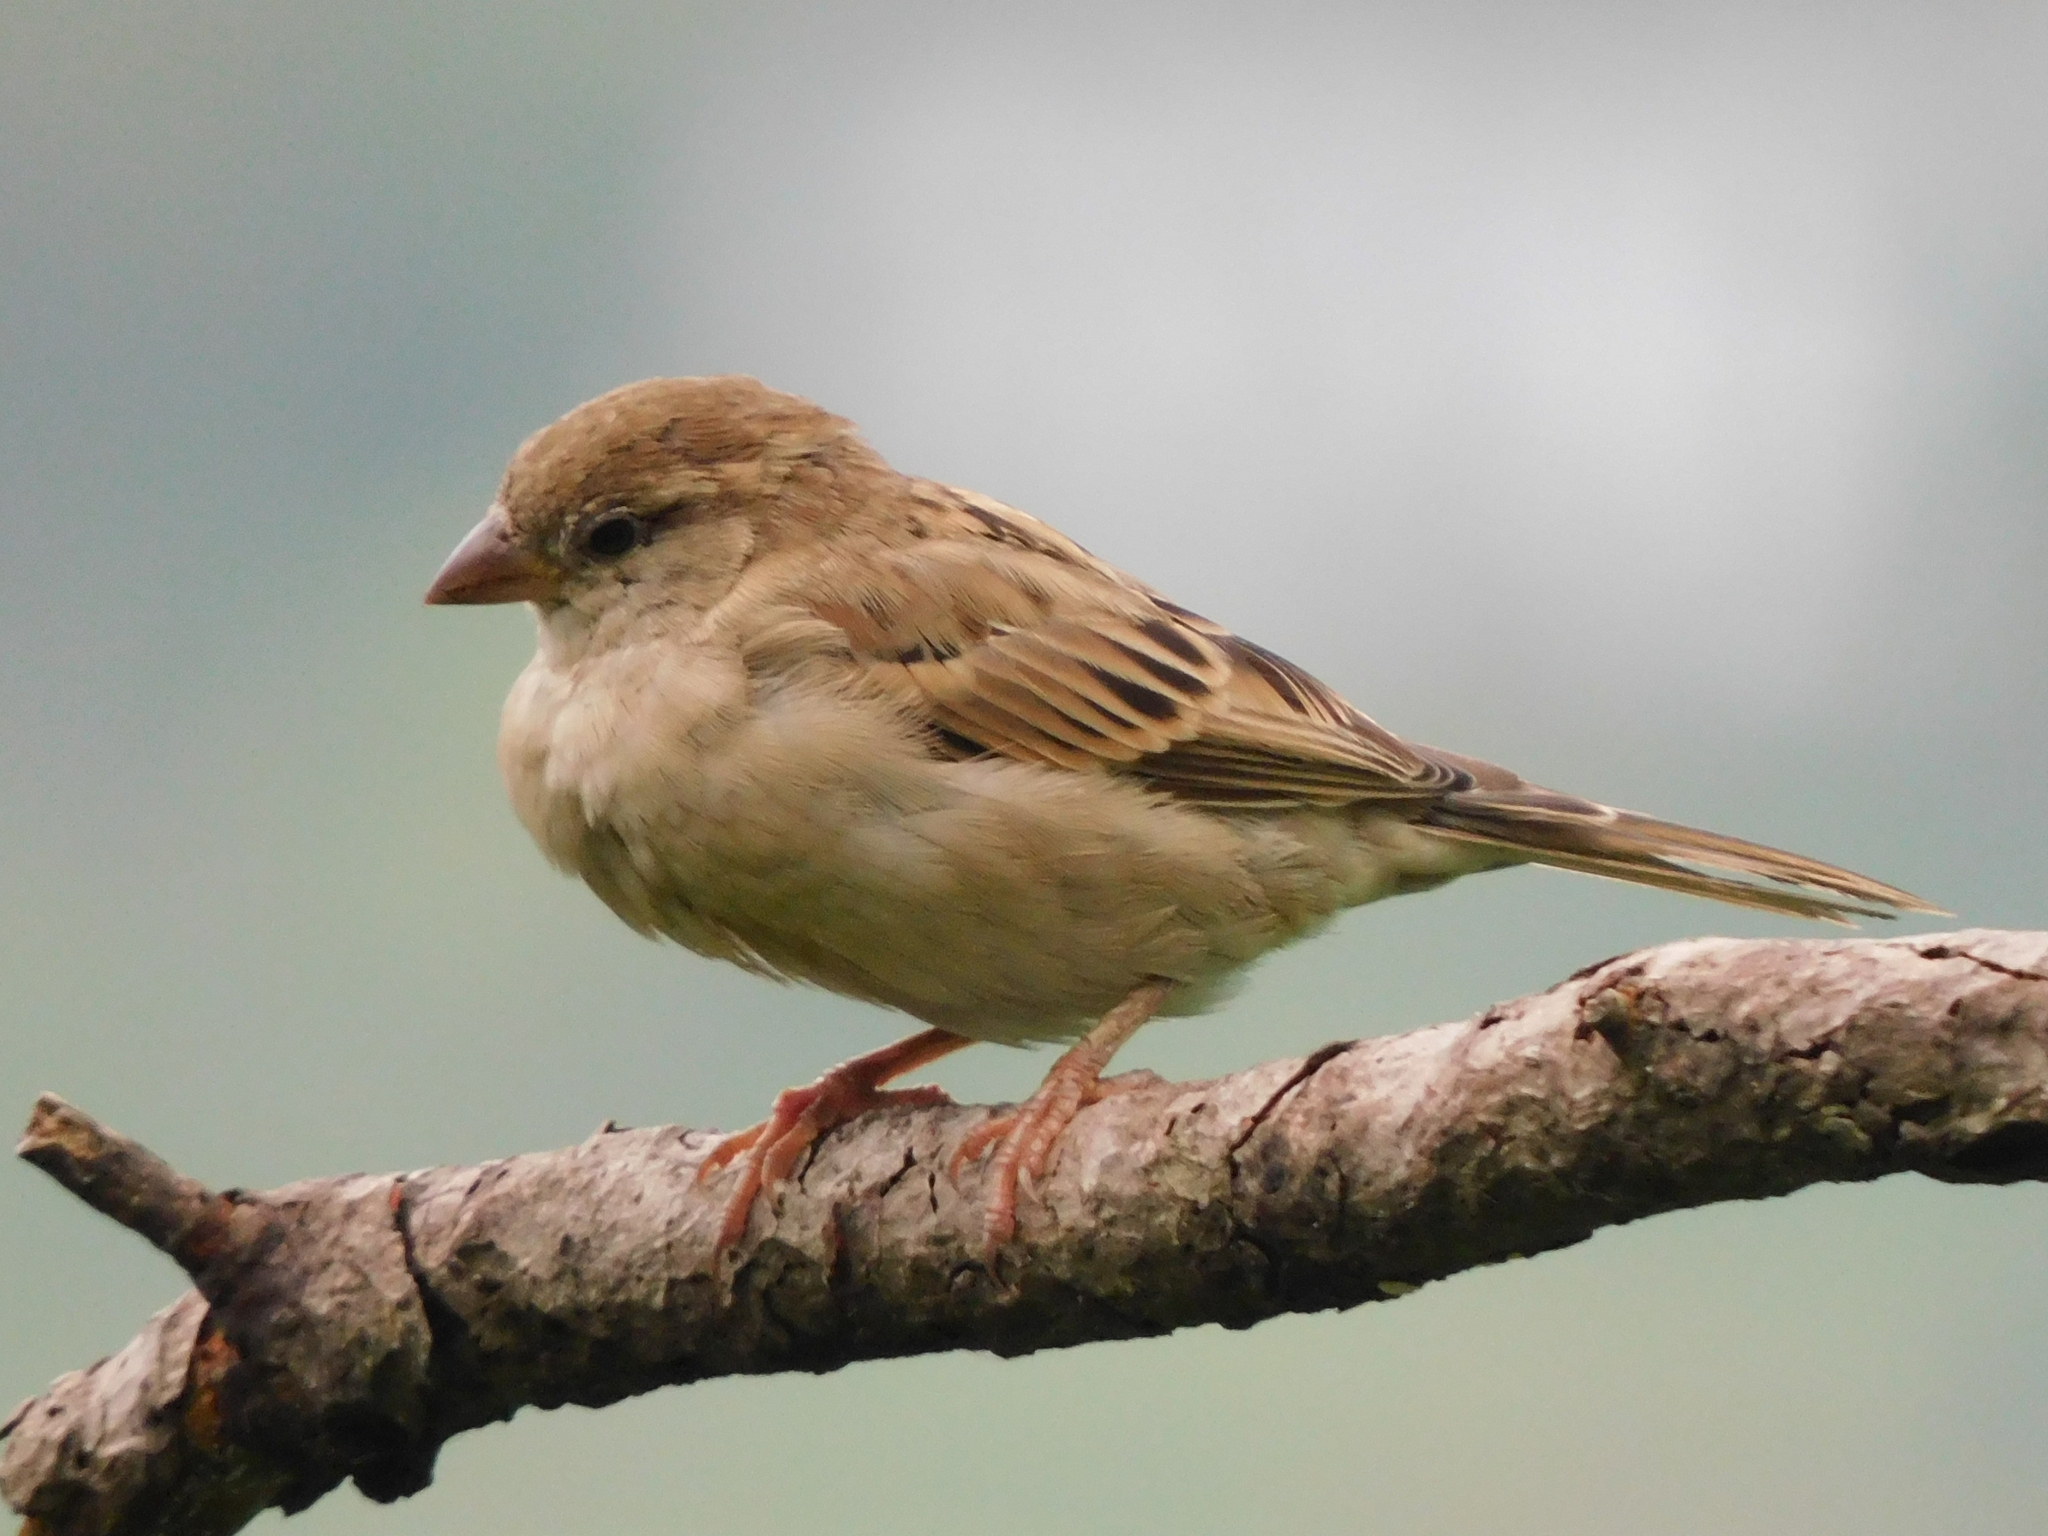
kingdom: Animalia
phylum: Chordata
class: Aves
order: Passeriformes
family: Passeridae
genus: Passer
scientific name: Passer domesticus
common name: House sparrow
